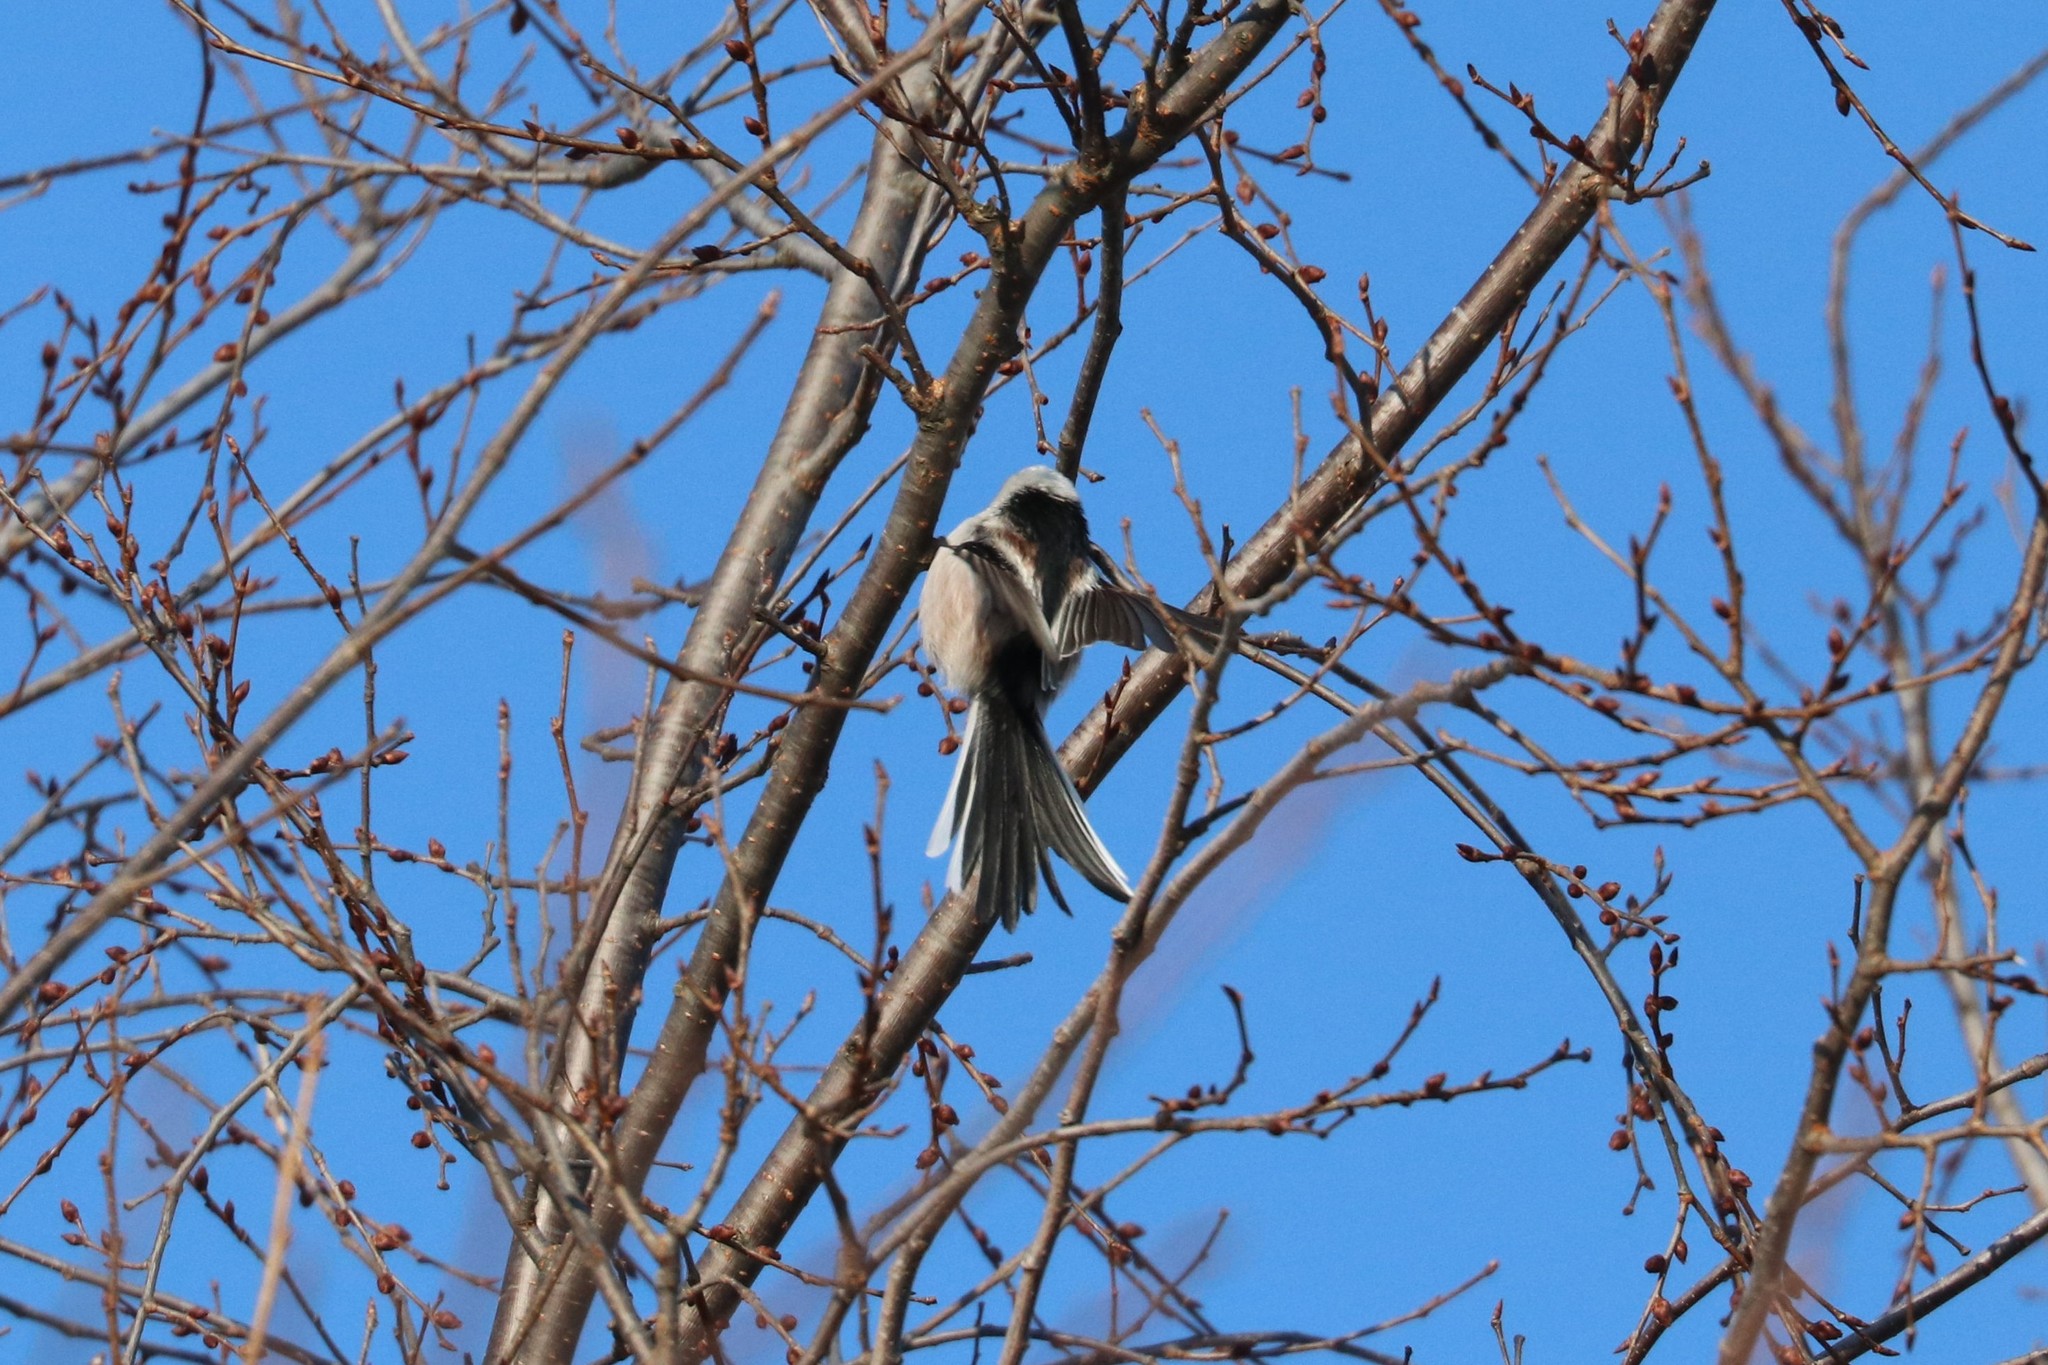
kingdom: Animalia
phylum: Chordata
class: Aves
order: Passeriformes
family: Aegithalidae
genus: Aegithalos
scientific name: Aegithalos caudatus
